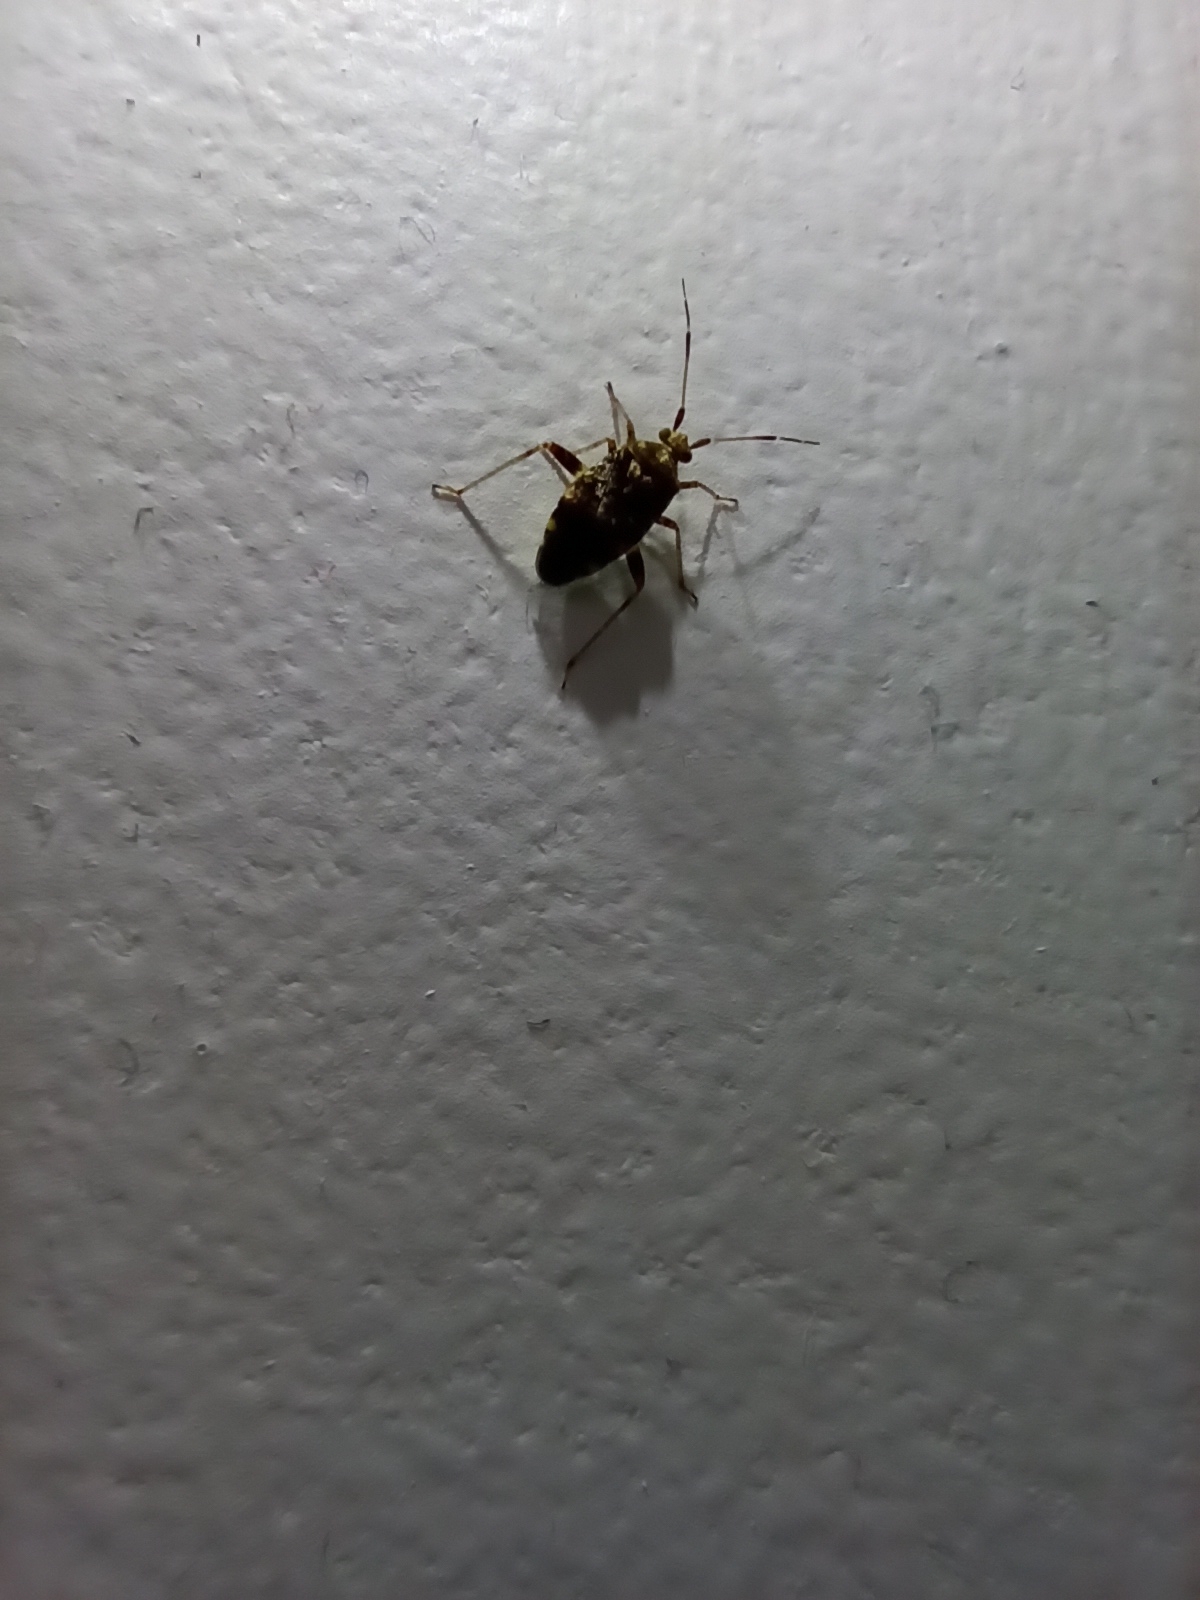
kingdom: Animalia
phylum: Arthropoda
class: Insecta
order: Hemiptera
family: Miridae
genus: Sidnia
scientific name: Sidnia kinbergi
